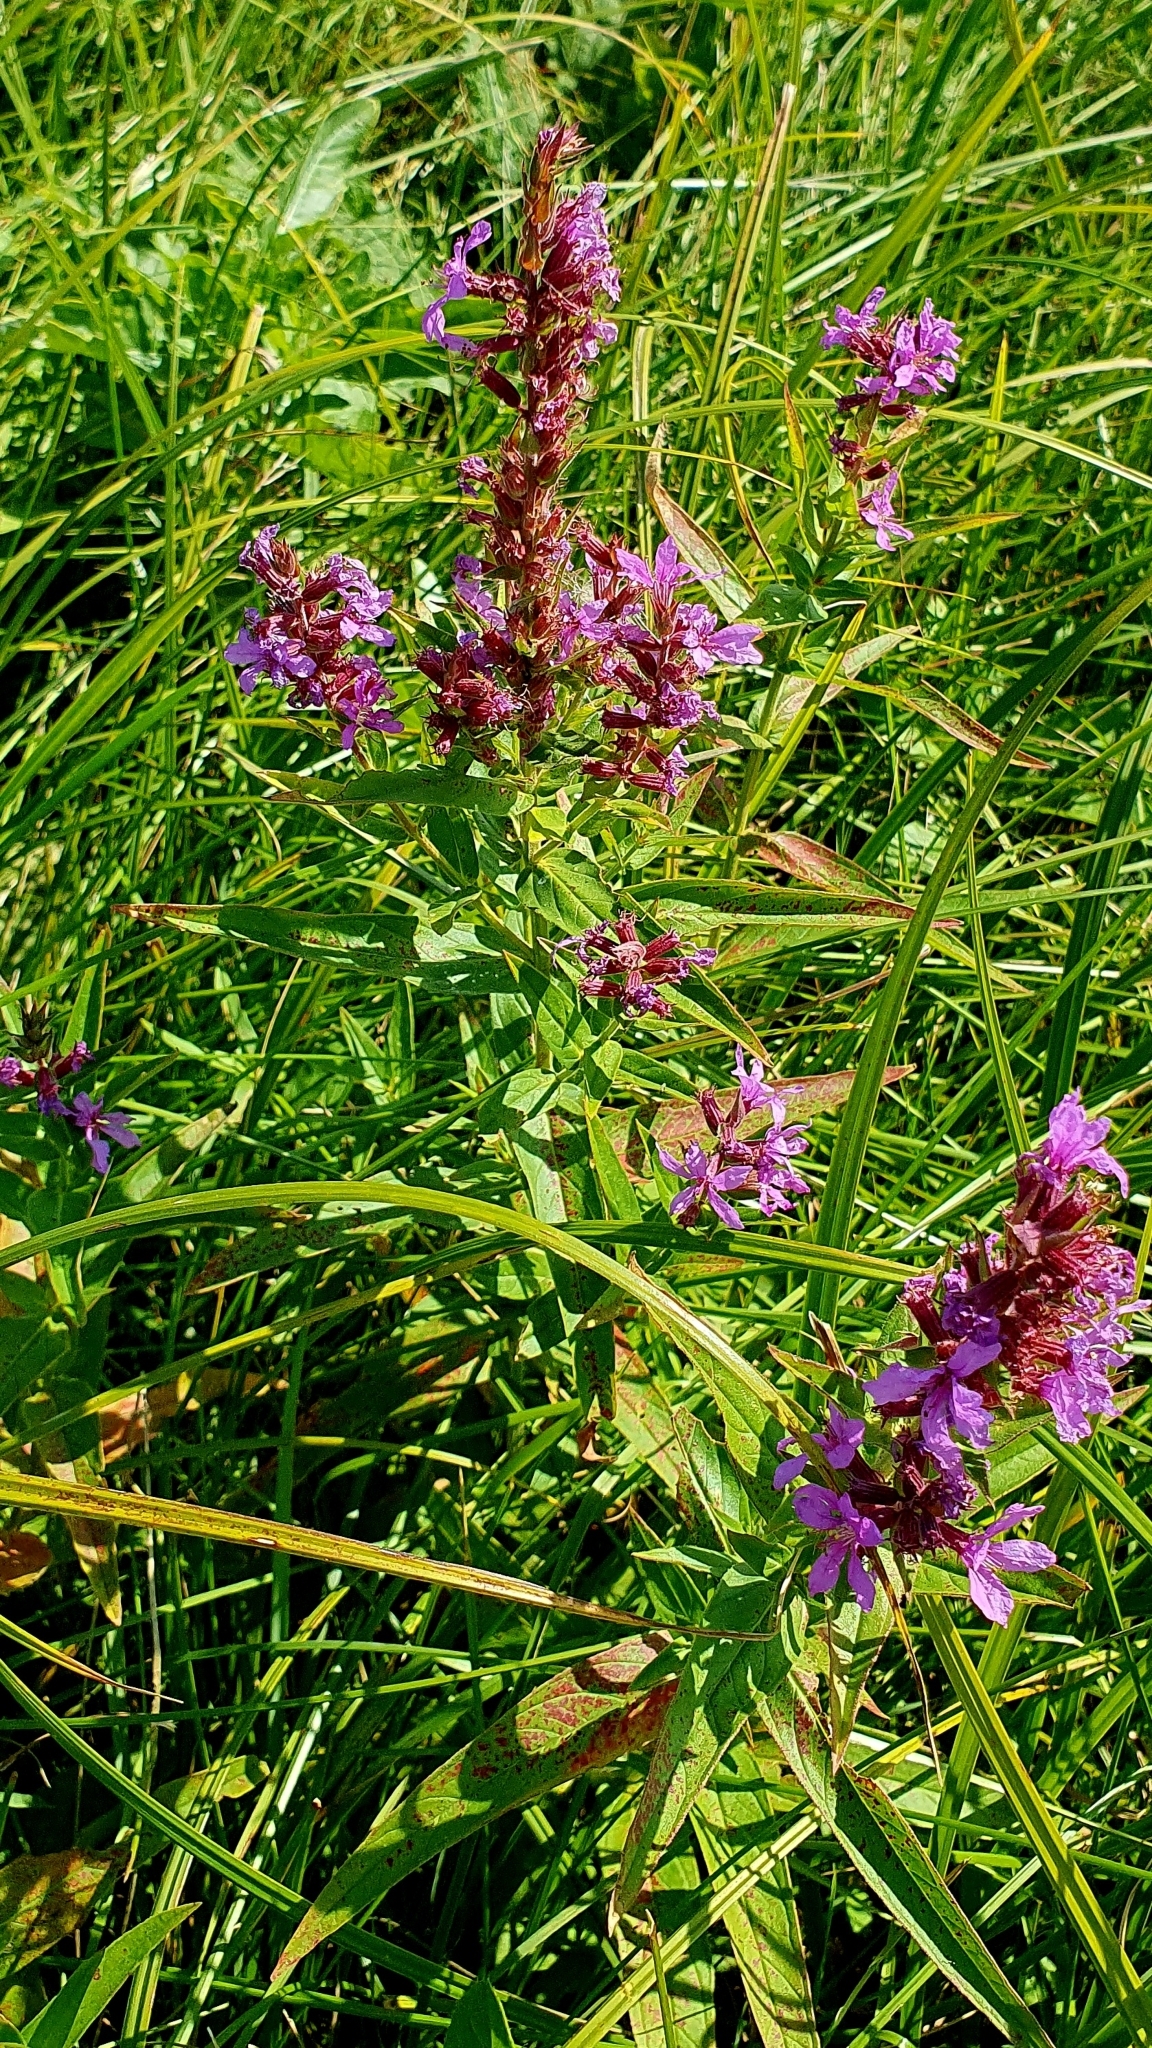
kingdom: Plantae
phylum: Tracheophyta
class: Magnoliopsida
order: Myrtales
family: Lythraceae
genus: Lythrum
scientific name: Lythrum salicaria
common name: Purple loosestrife
